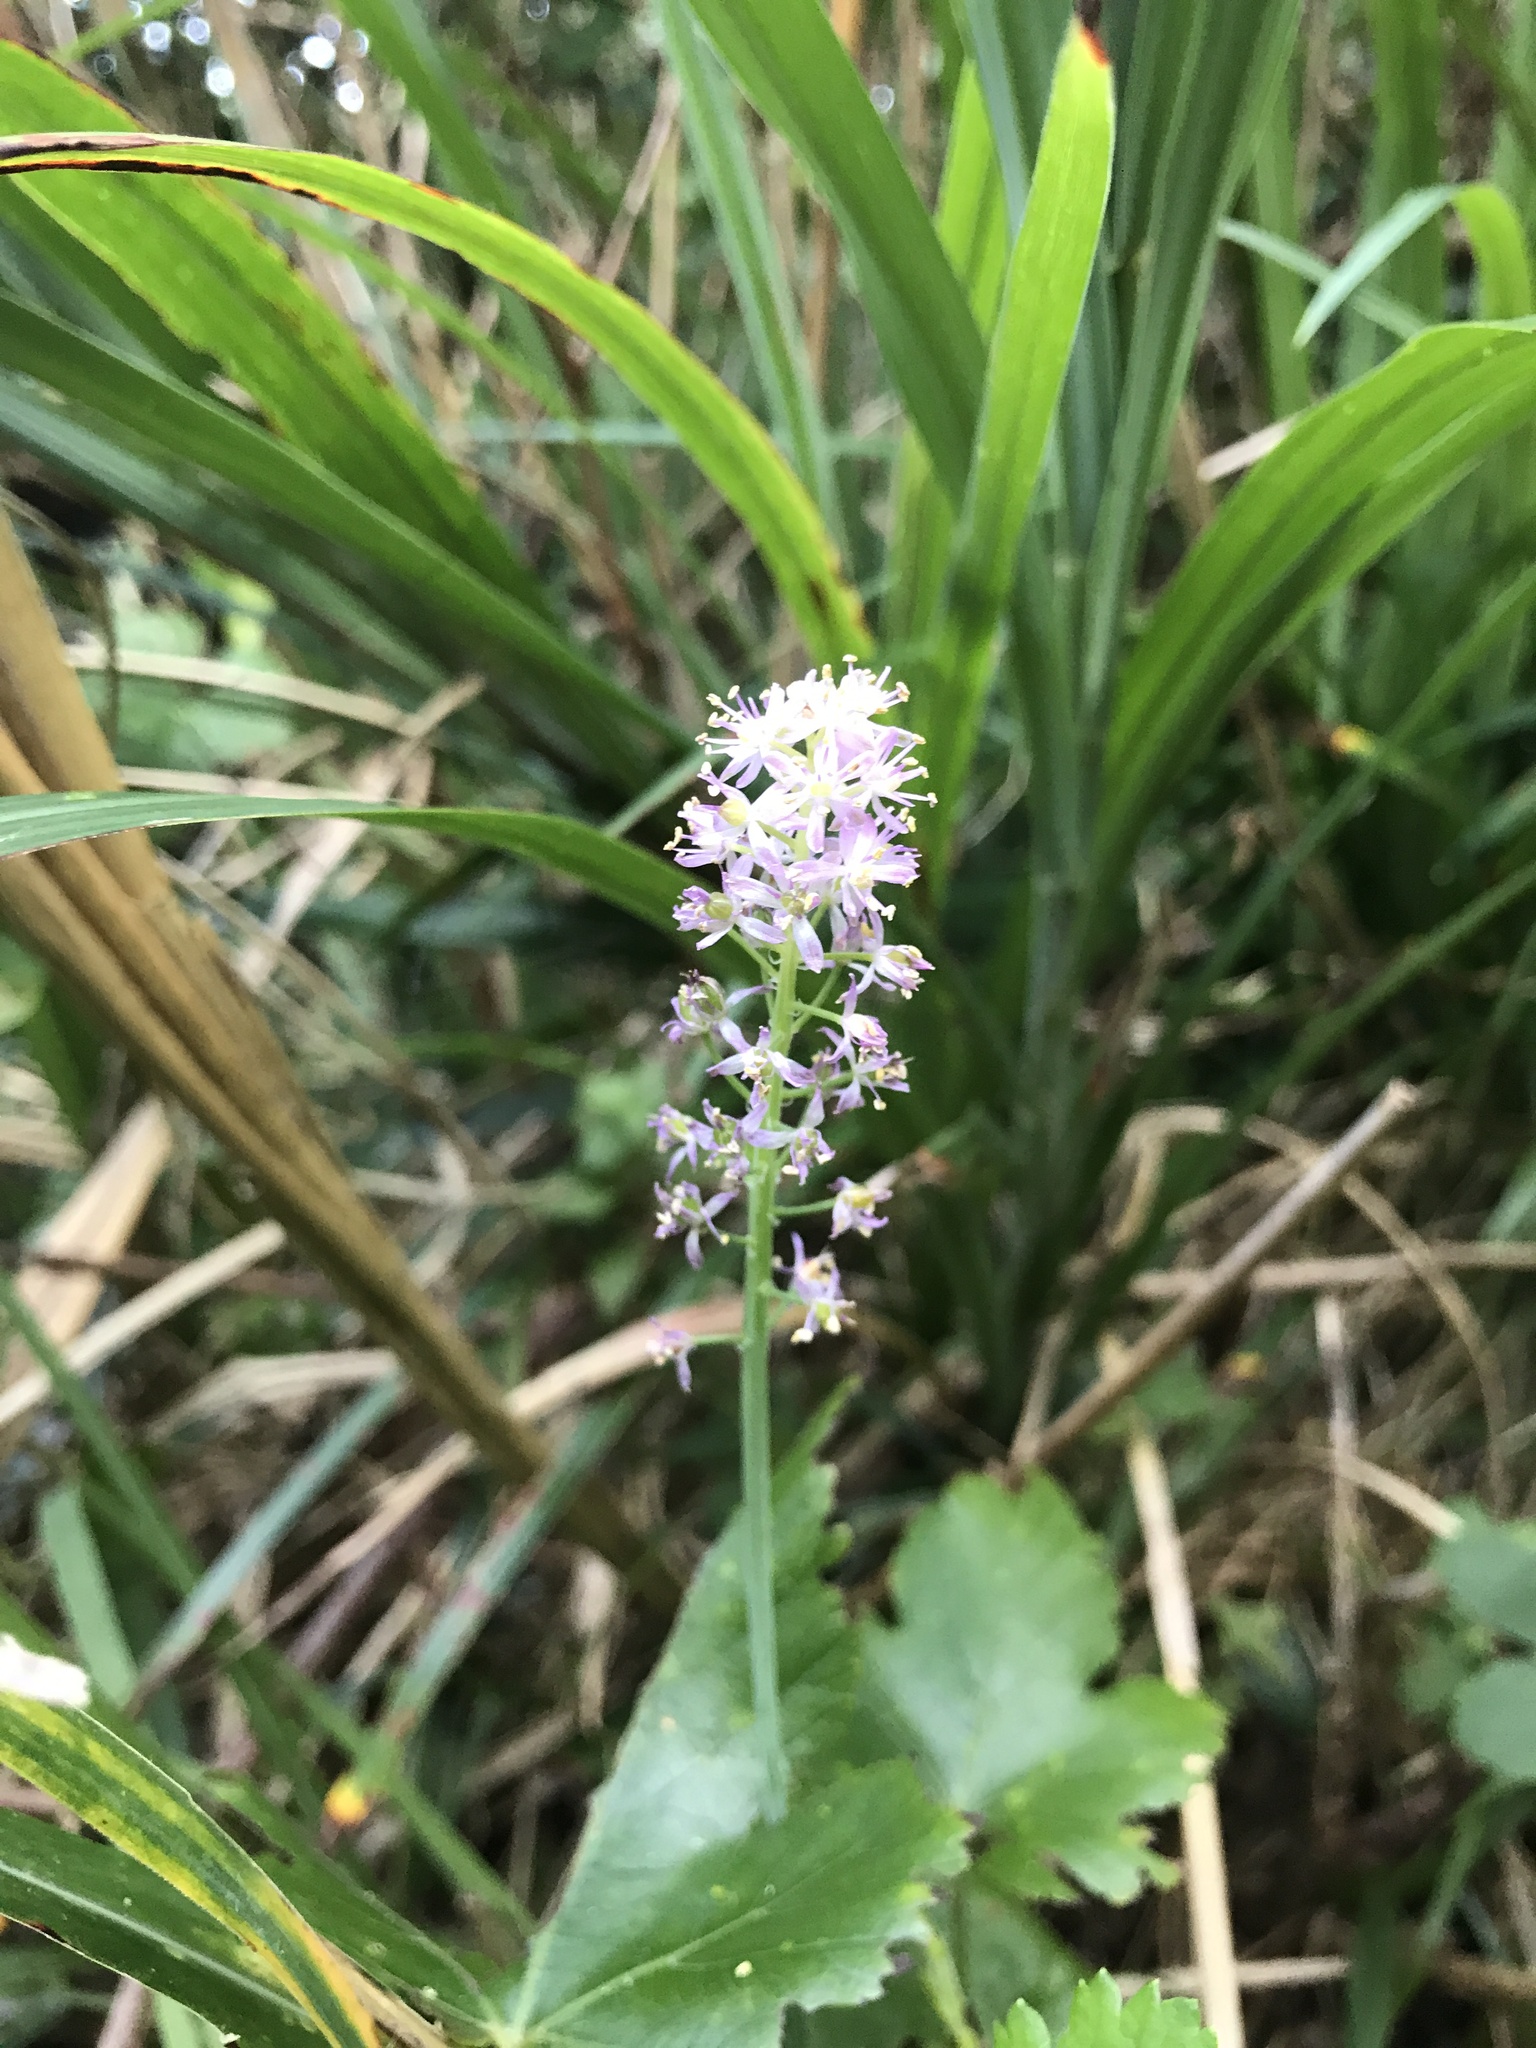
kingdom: Plantae
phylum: Tracheophyta
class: Liliopsida
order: Asparagales
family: Asparagaceae
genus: Barnardia
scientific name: Barnardia japonica
